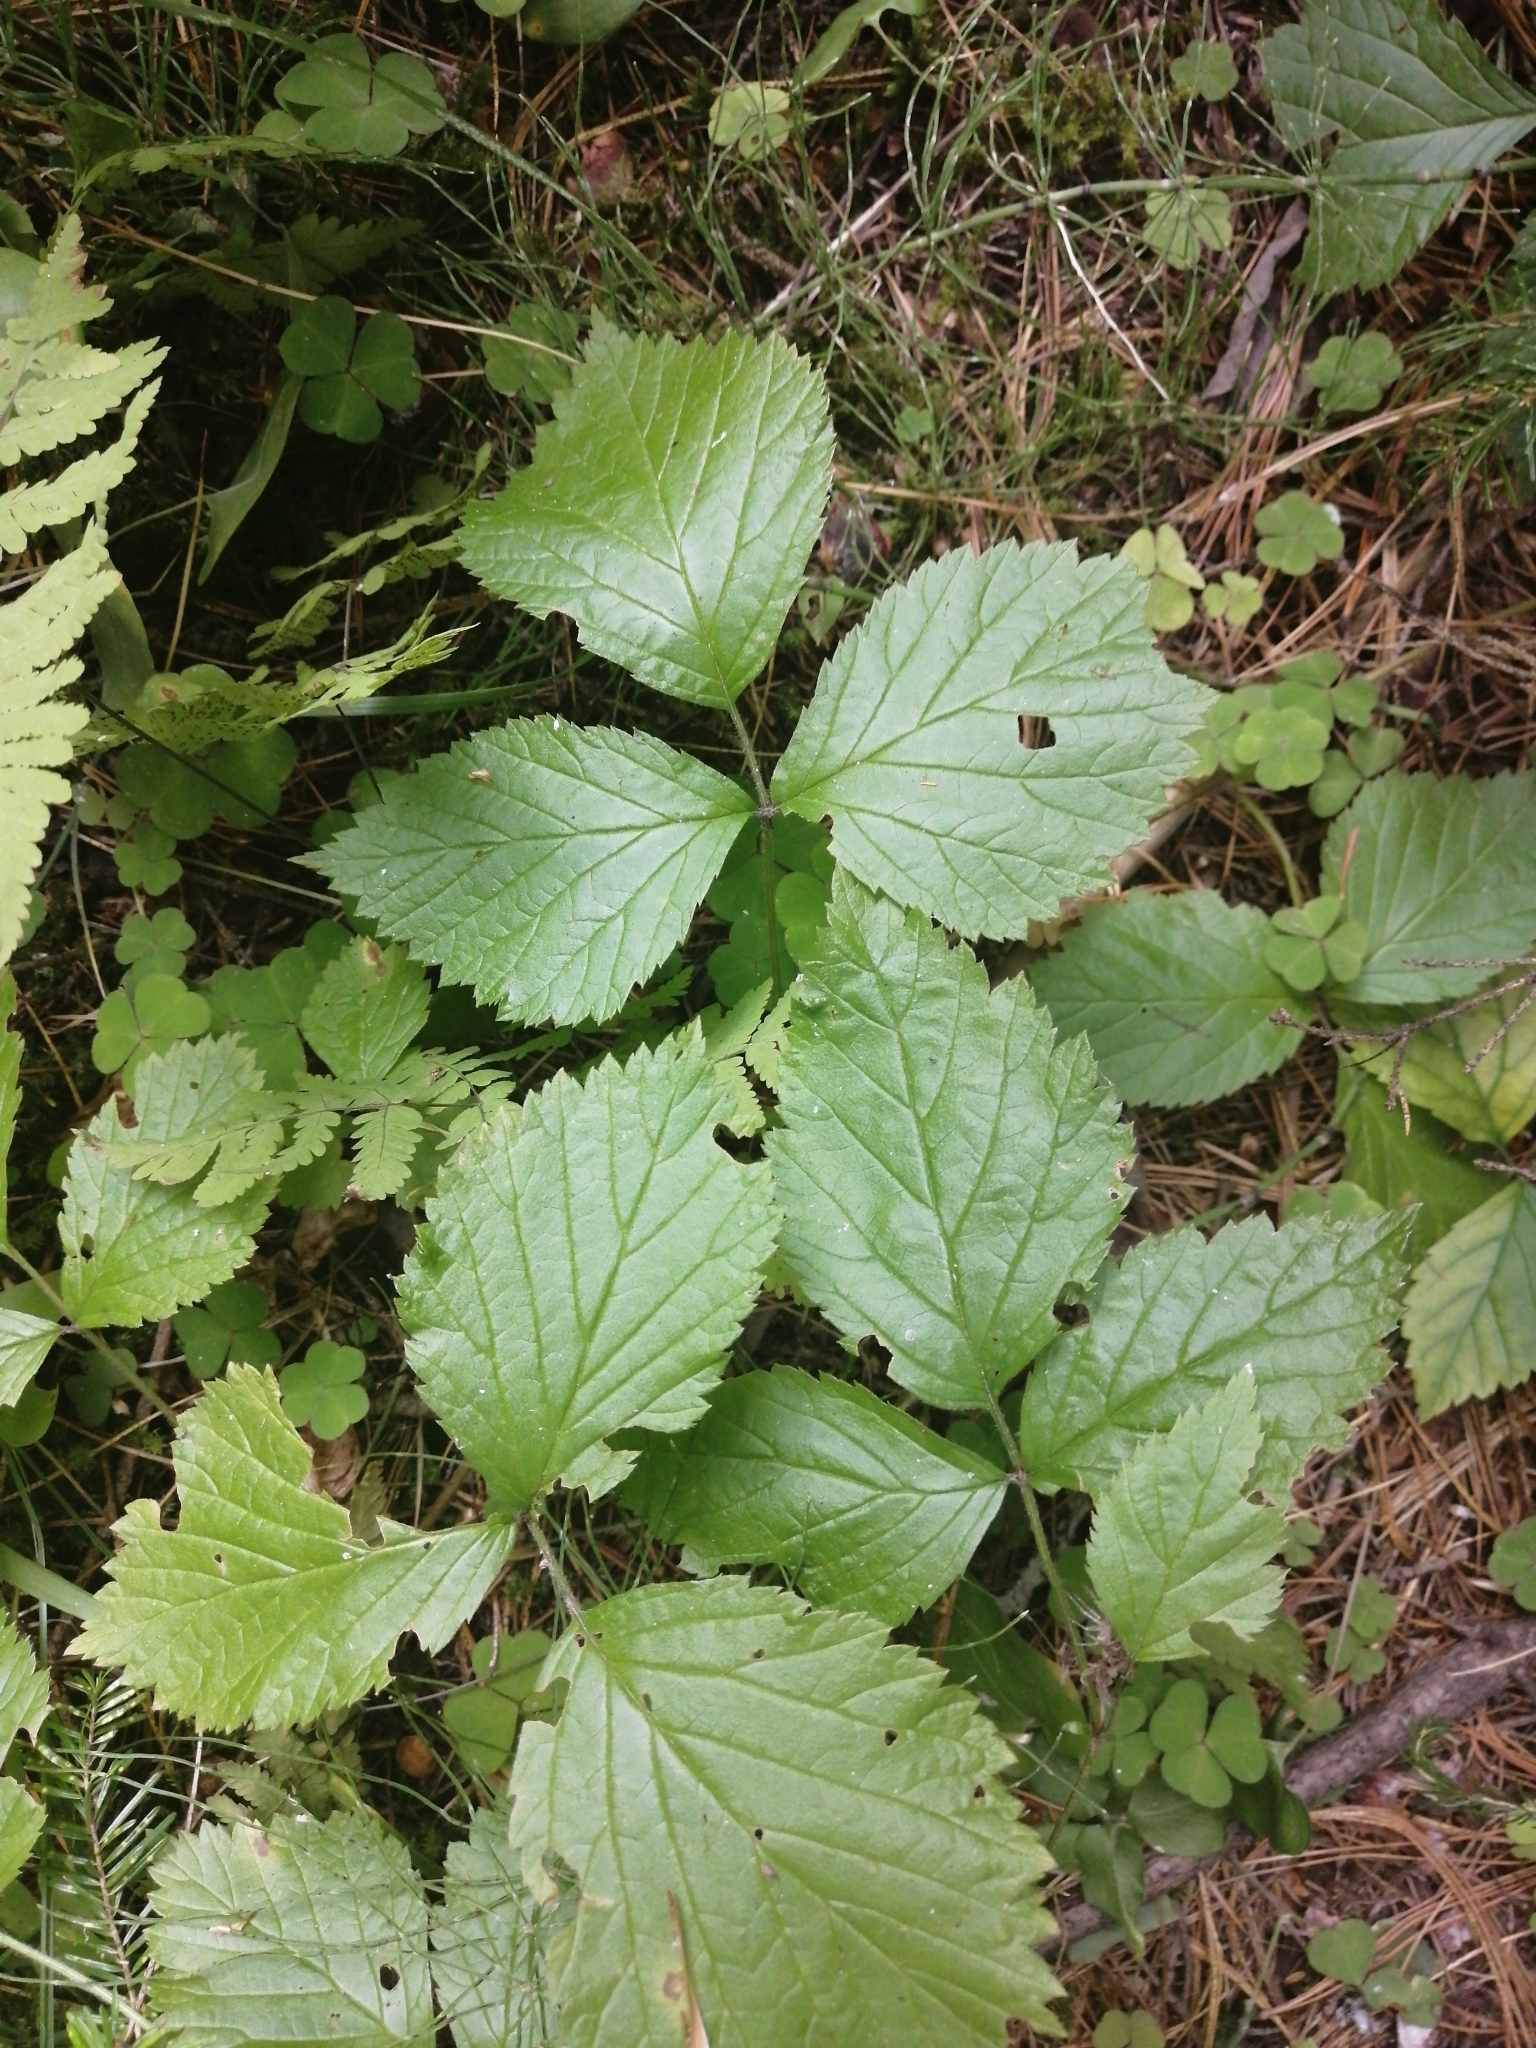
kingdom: Plantae
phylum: Tracheophyta
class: Magnoliopsida
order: Rosales
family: Rosaceae
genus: Rubus
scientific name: Rubus saxatilis
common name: Stone bramble
